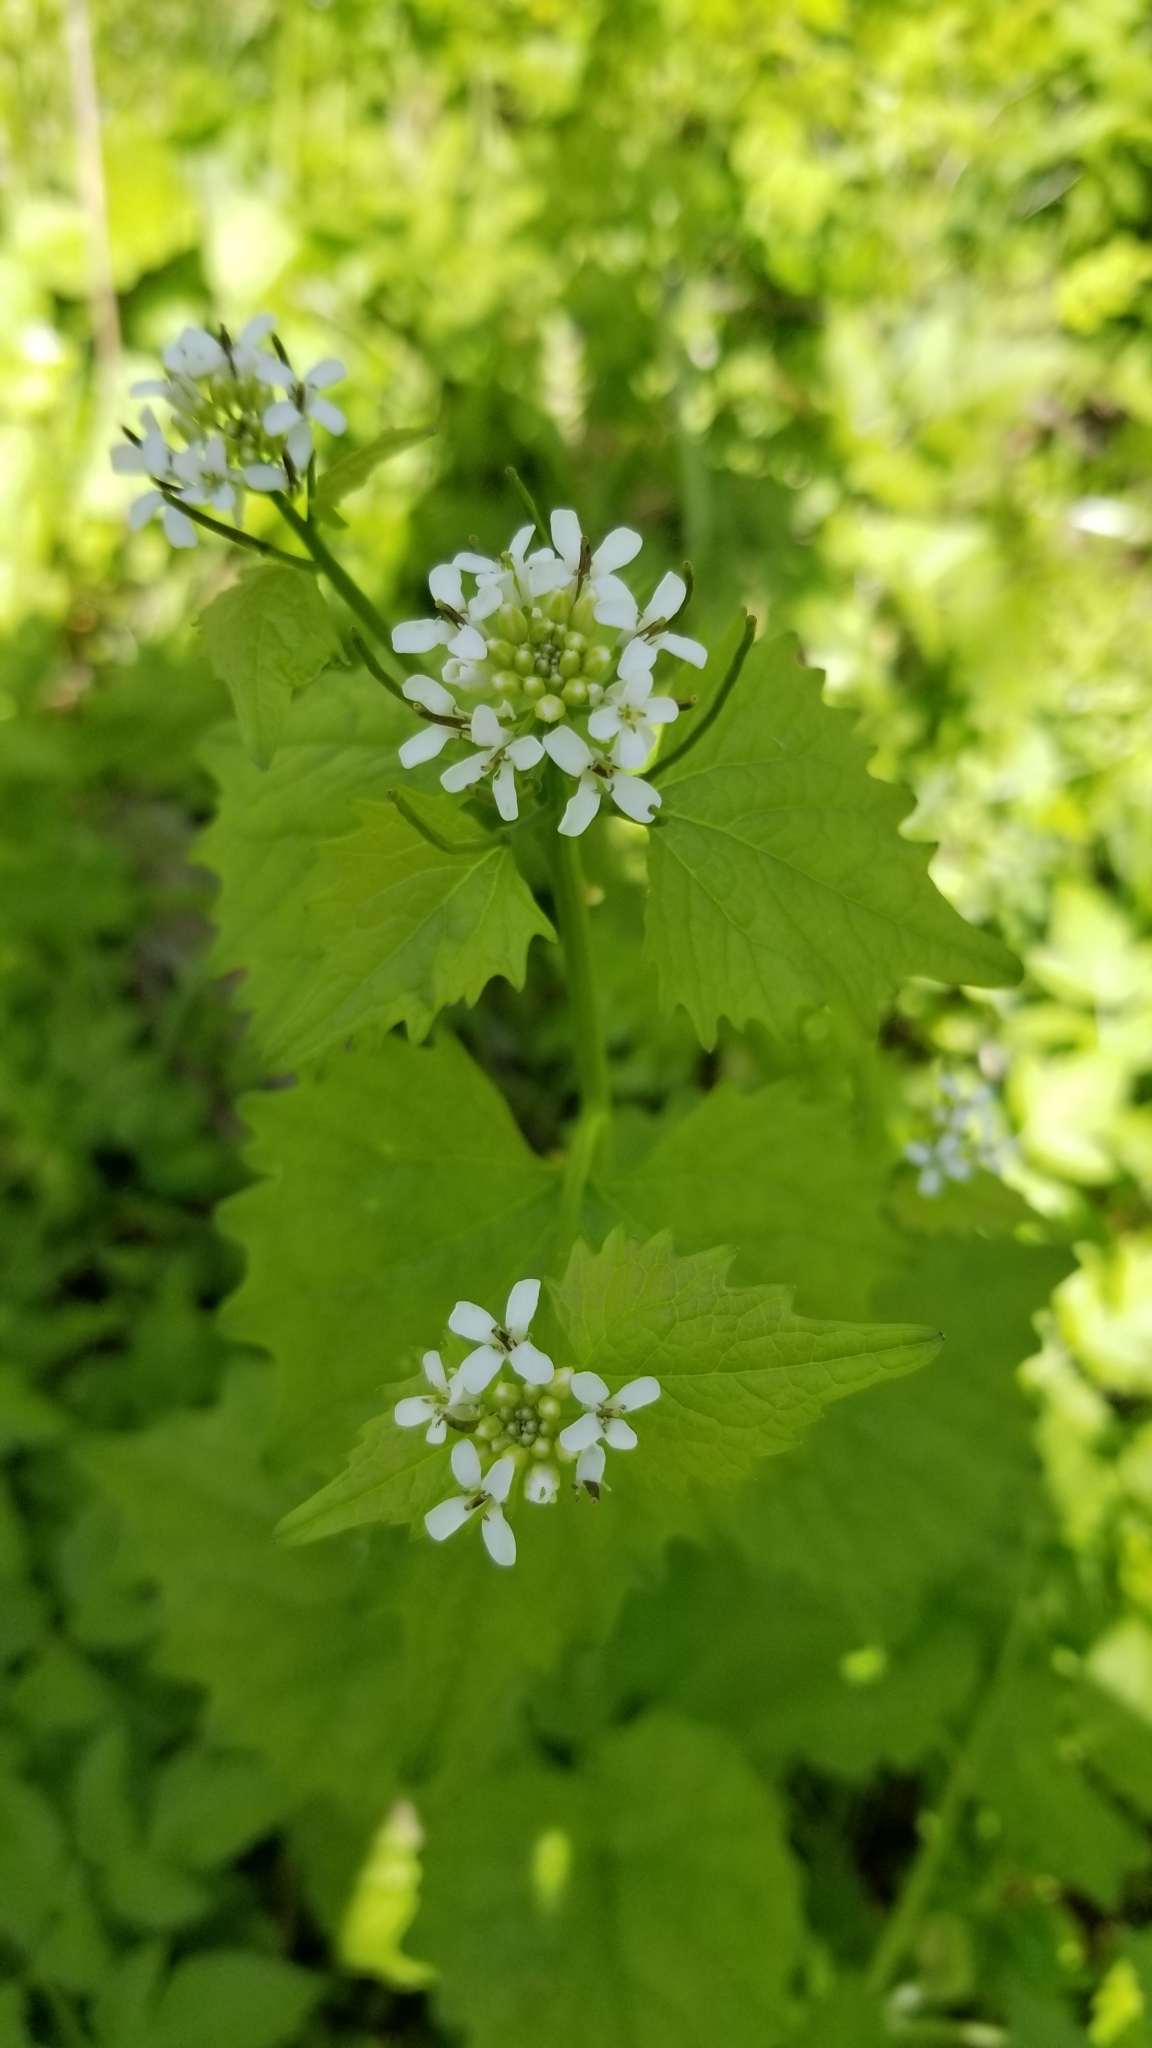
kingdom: Plantae
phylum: Tracheophyta
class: Magnoliopsida
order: Brassicales
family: Brassicaceae
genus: Alliaria
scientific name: Alliaria petiolata
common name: Garlic mustard
